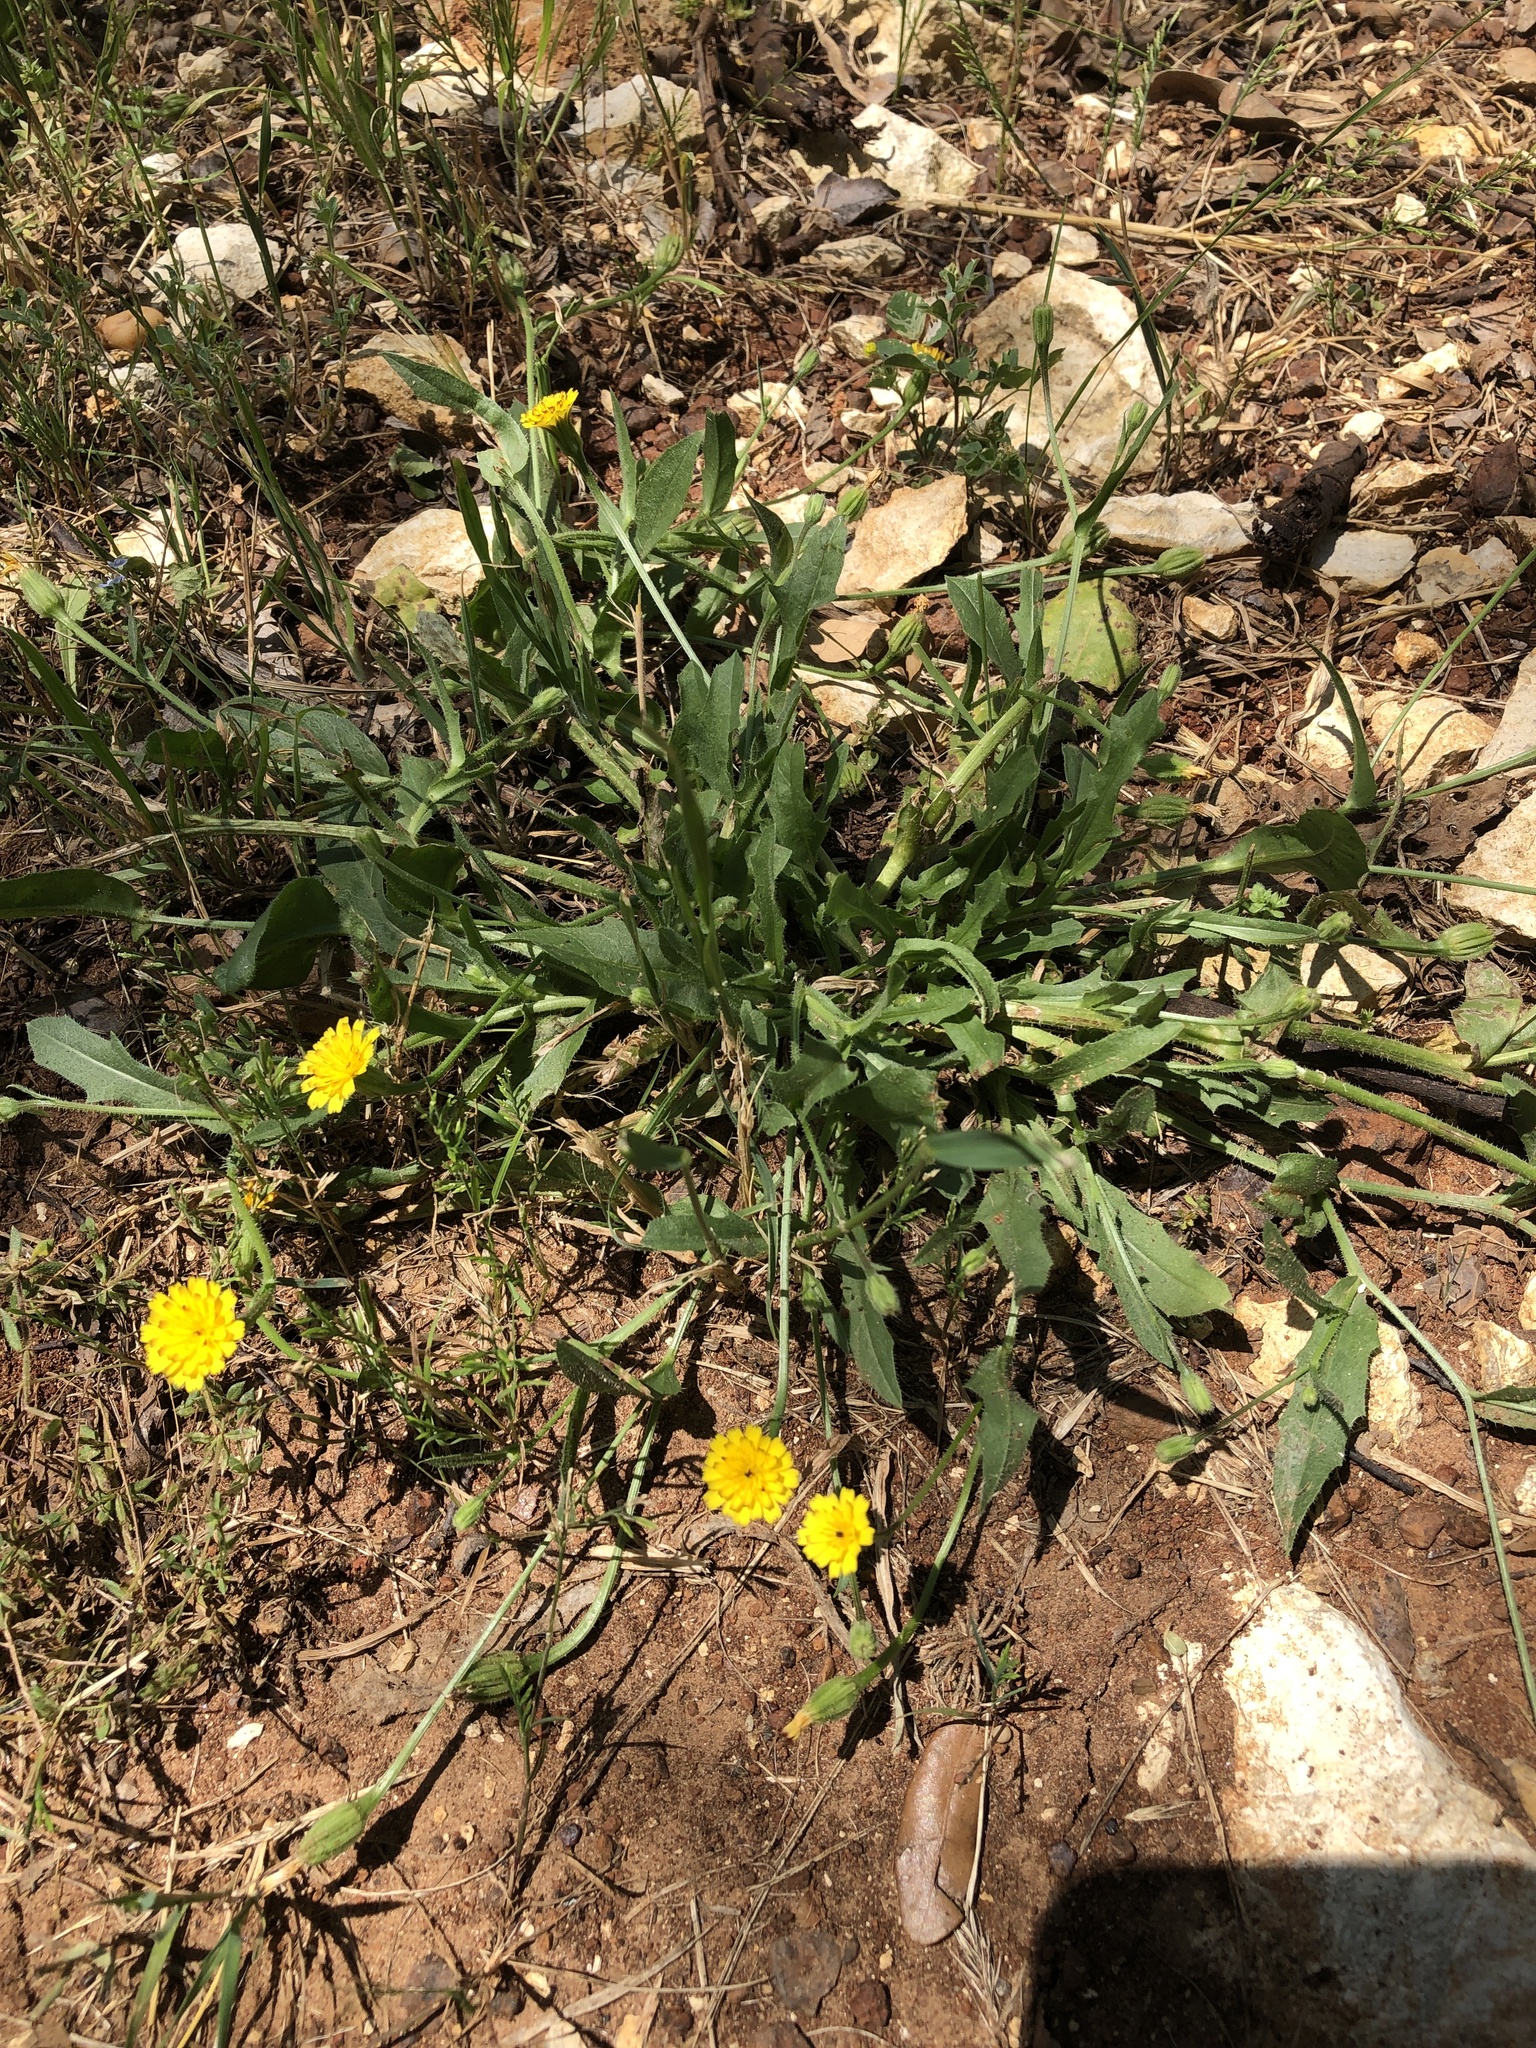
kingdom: Plantae
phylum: Tracheophyta
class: Magnoliopsida
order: Asterales
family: Asteraceae
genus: Hedypnois
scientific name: Hedypnois rhagadioloides
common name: Cretan weed
